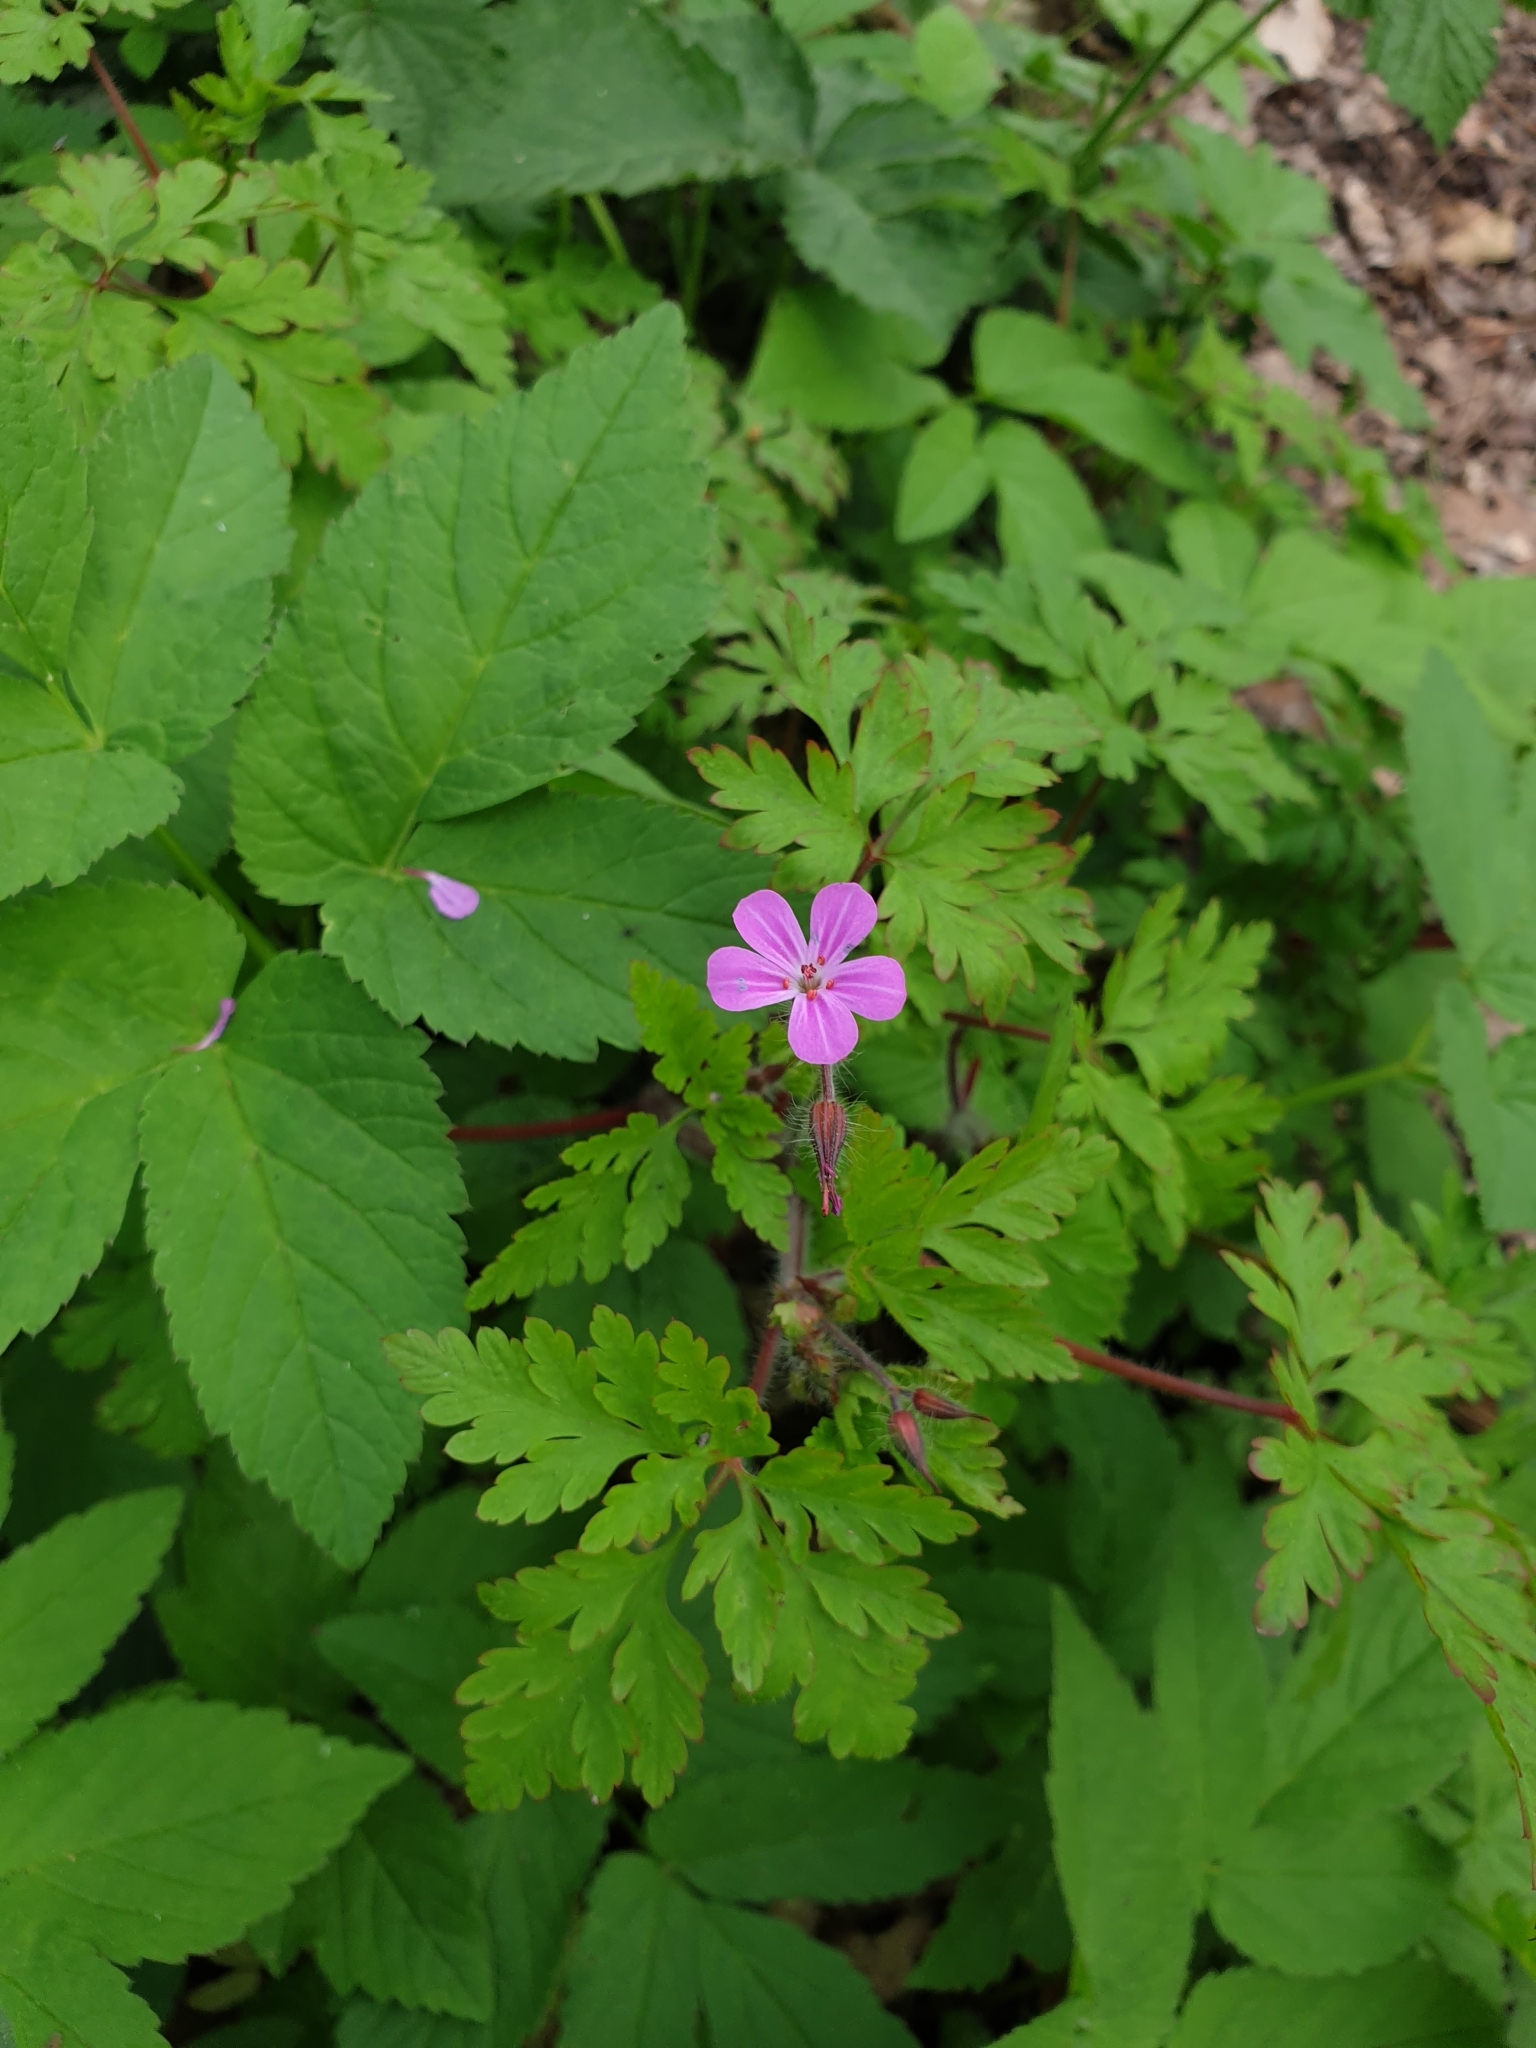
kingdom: Plantae
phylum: Tracheophyta
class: Magnoliopsida
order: Geraniales
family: Geraniaceae
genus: Geranium
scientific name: Geranium robertianum
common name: Herb-robert
